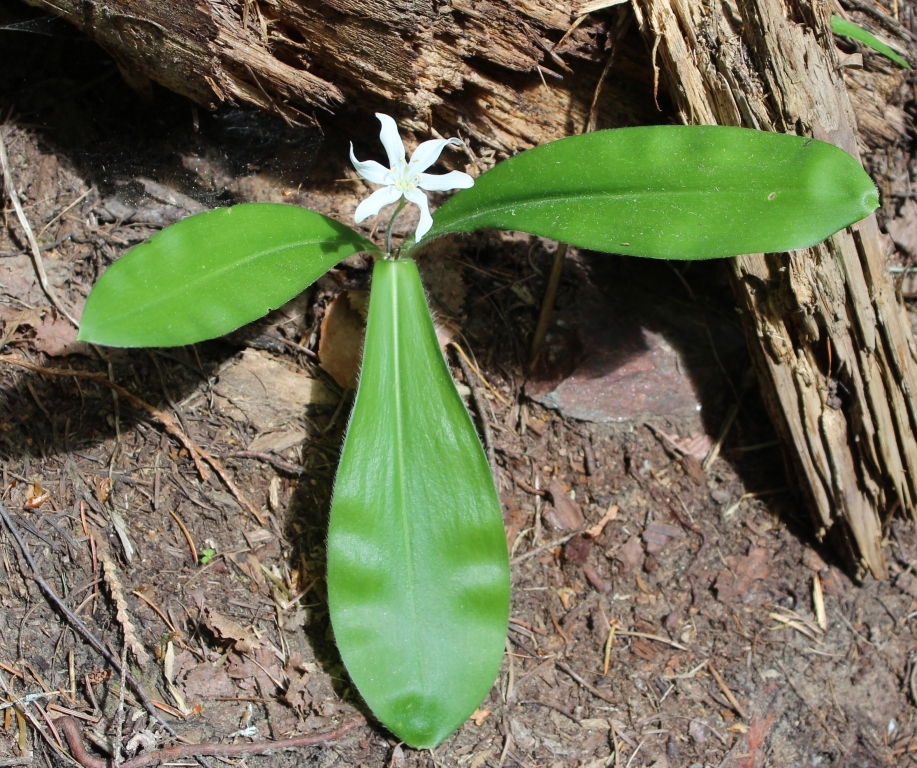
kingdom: Plantae
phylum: Tracheophyta
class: Liliopsida
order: Liliales
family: Liliaceae
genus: Clintonia
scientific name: Clintonia uniflora
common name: Queen's cup
